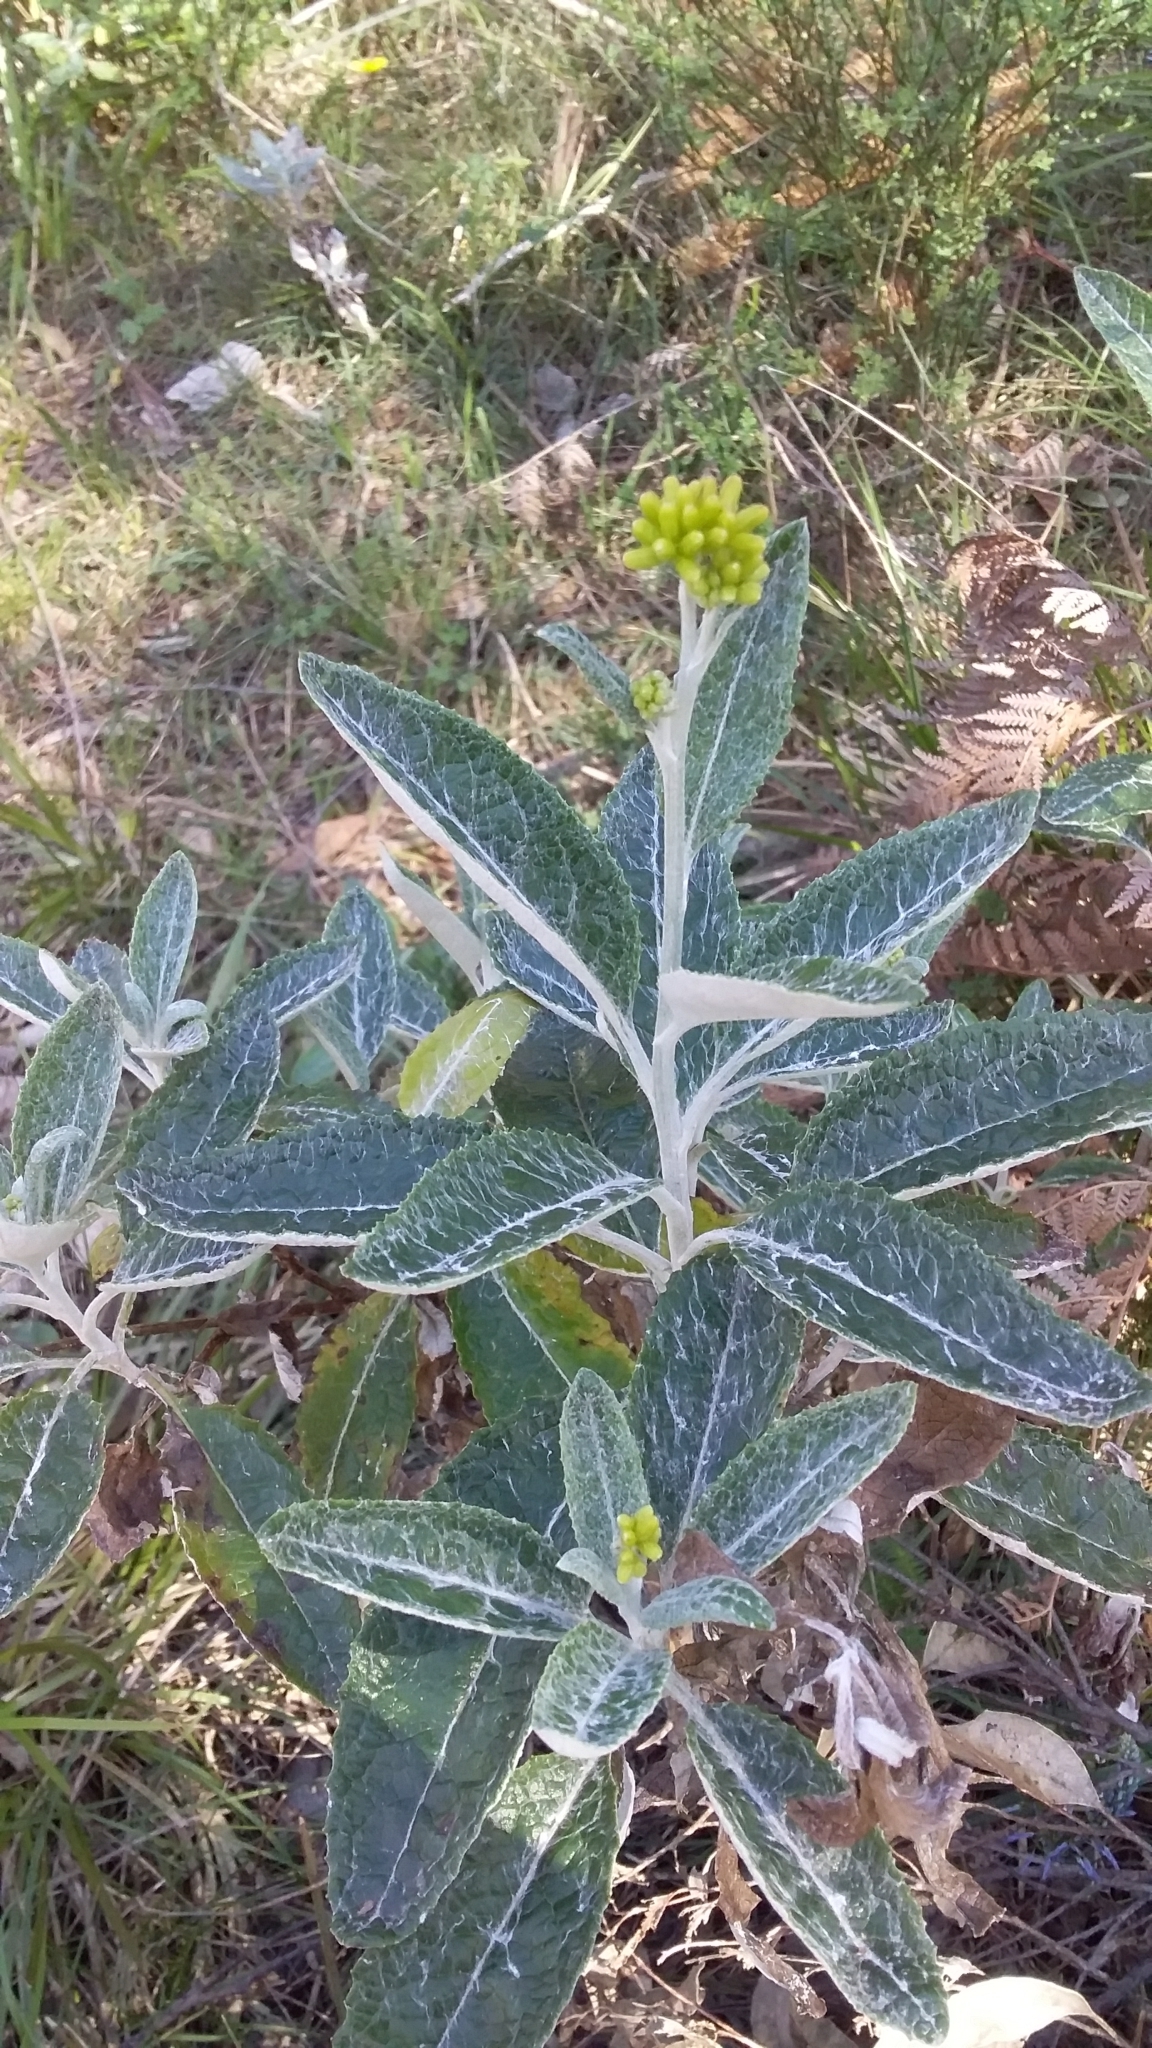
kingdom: Plantae
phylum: Tracheophyta
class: Magnoliopsida
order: Asterales
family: Asteraceae
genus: Senecio
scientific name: Senecio hypoleucus
